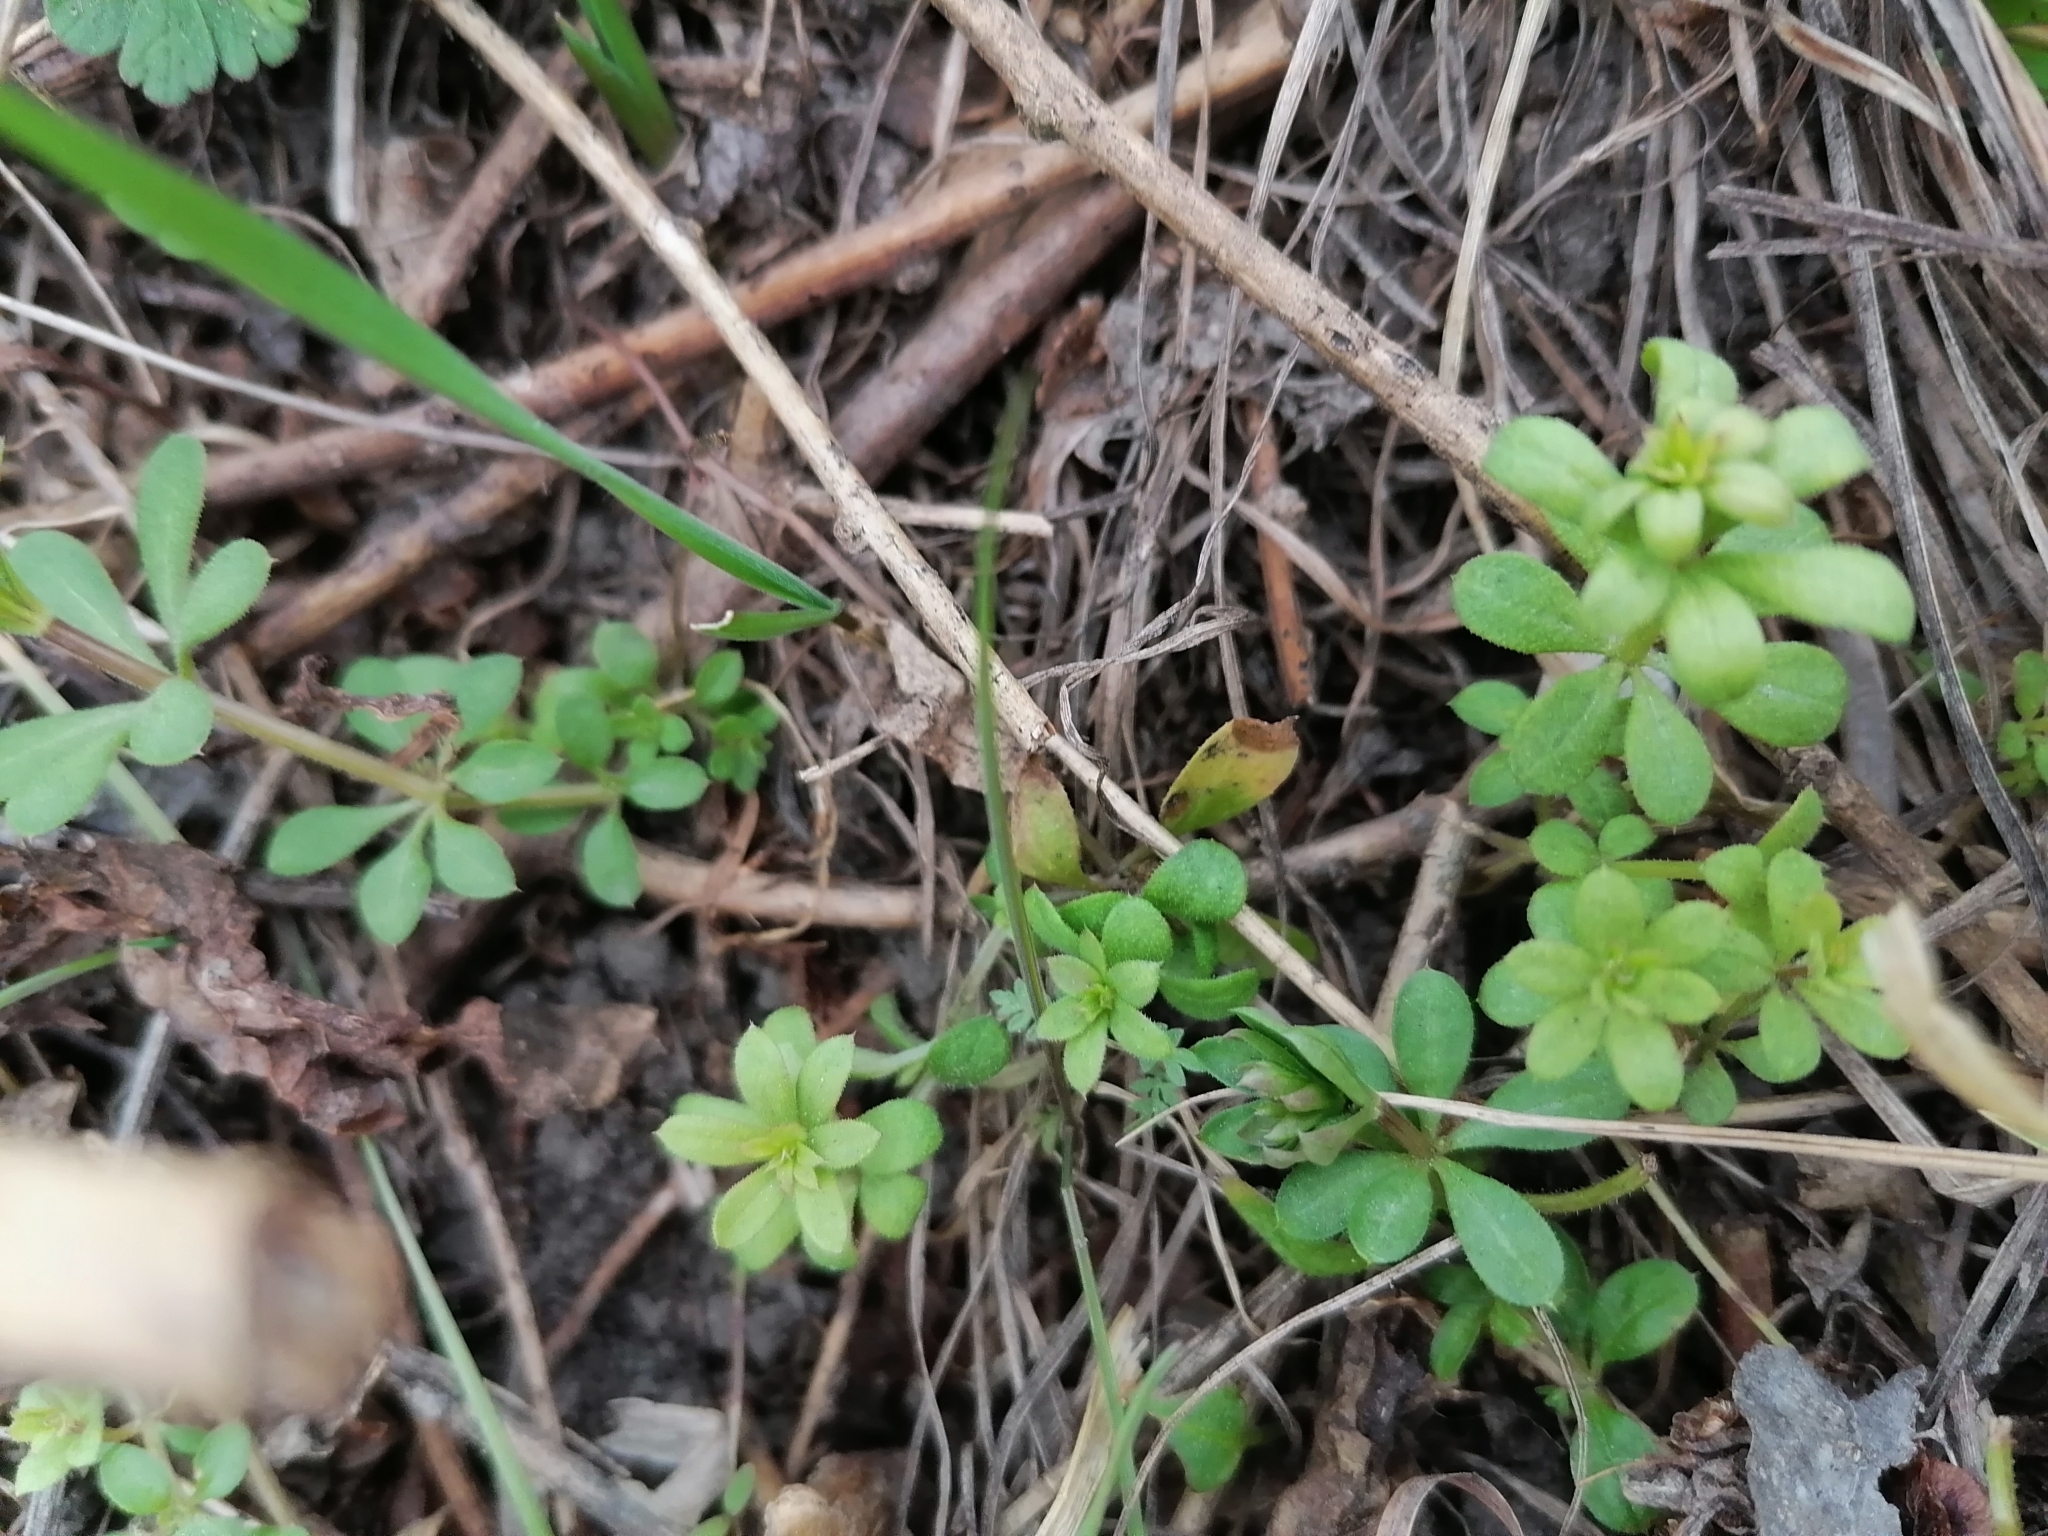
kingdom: Plantae
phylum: Tracheophyta
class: Magnoliopsida
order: Gentianales
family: Rubiaceae
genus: Galium
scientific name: Galium aparine
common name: Cleavers
